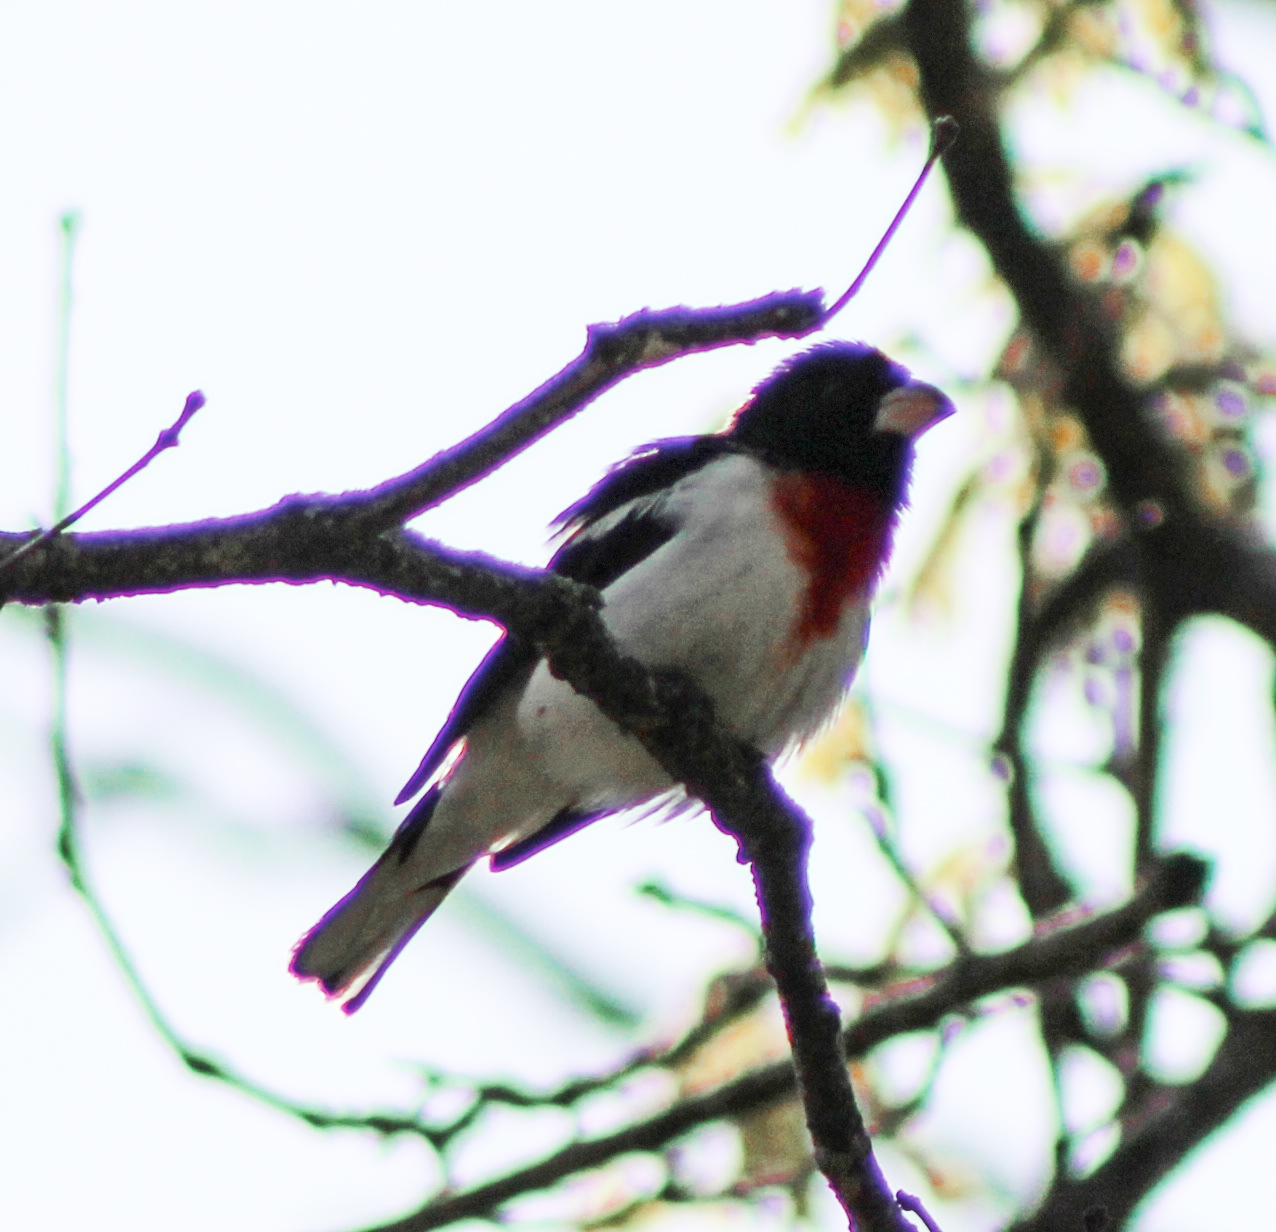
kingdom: Animalia
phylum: Chordata
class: Aves
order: Passeriformes
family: Cardinalidae
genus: Pheucticus
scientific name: Pheucticus ludovicianus
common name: Rose-breasted grosbeak
